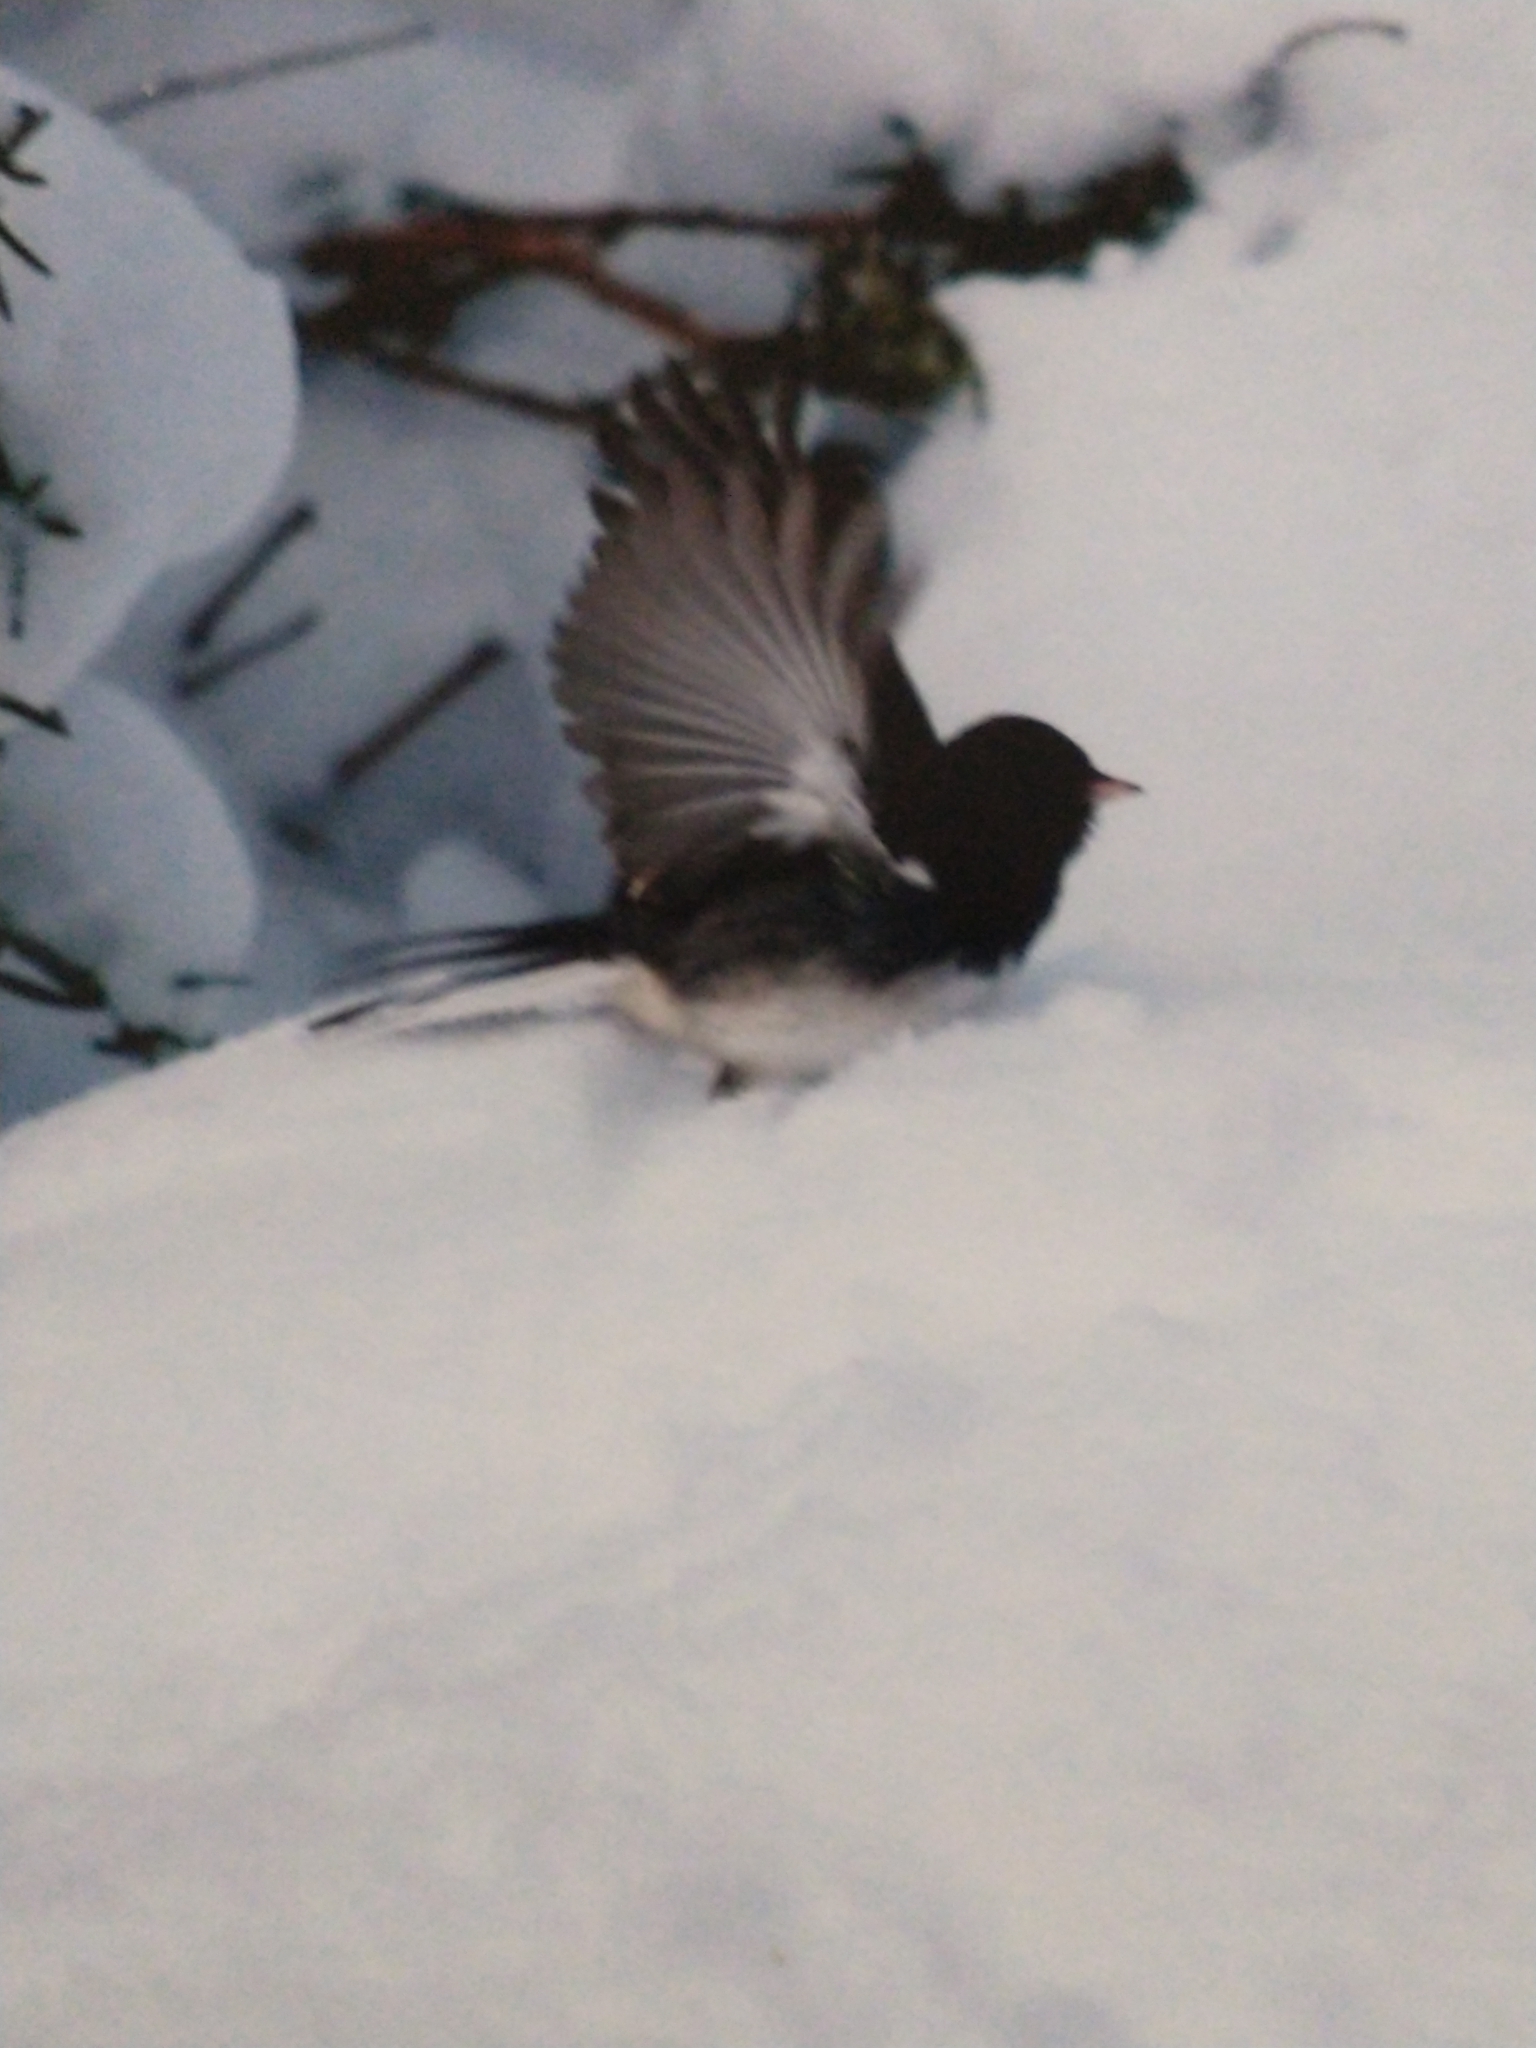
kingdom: Animalia
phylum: Chordata
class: Aves
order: Passeriformes
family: Passerellidae
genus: Junco
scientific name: Junco hyemalis
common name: Dark-eyed junco
